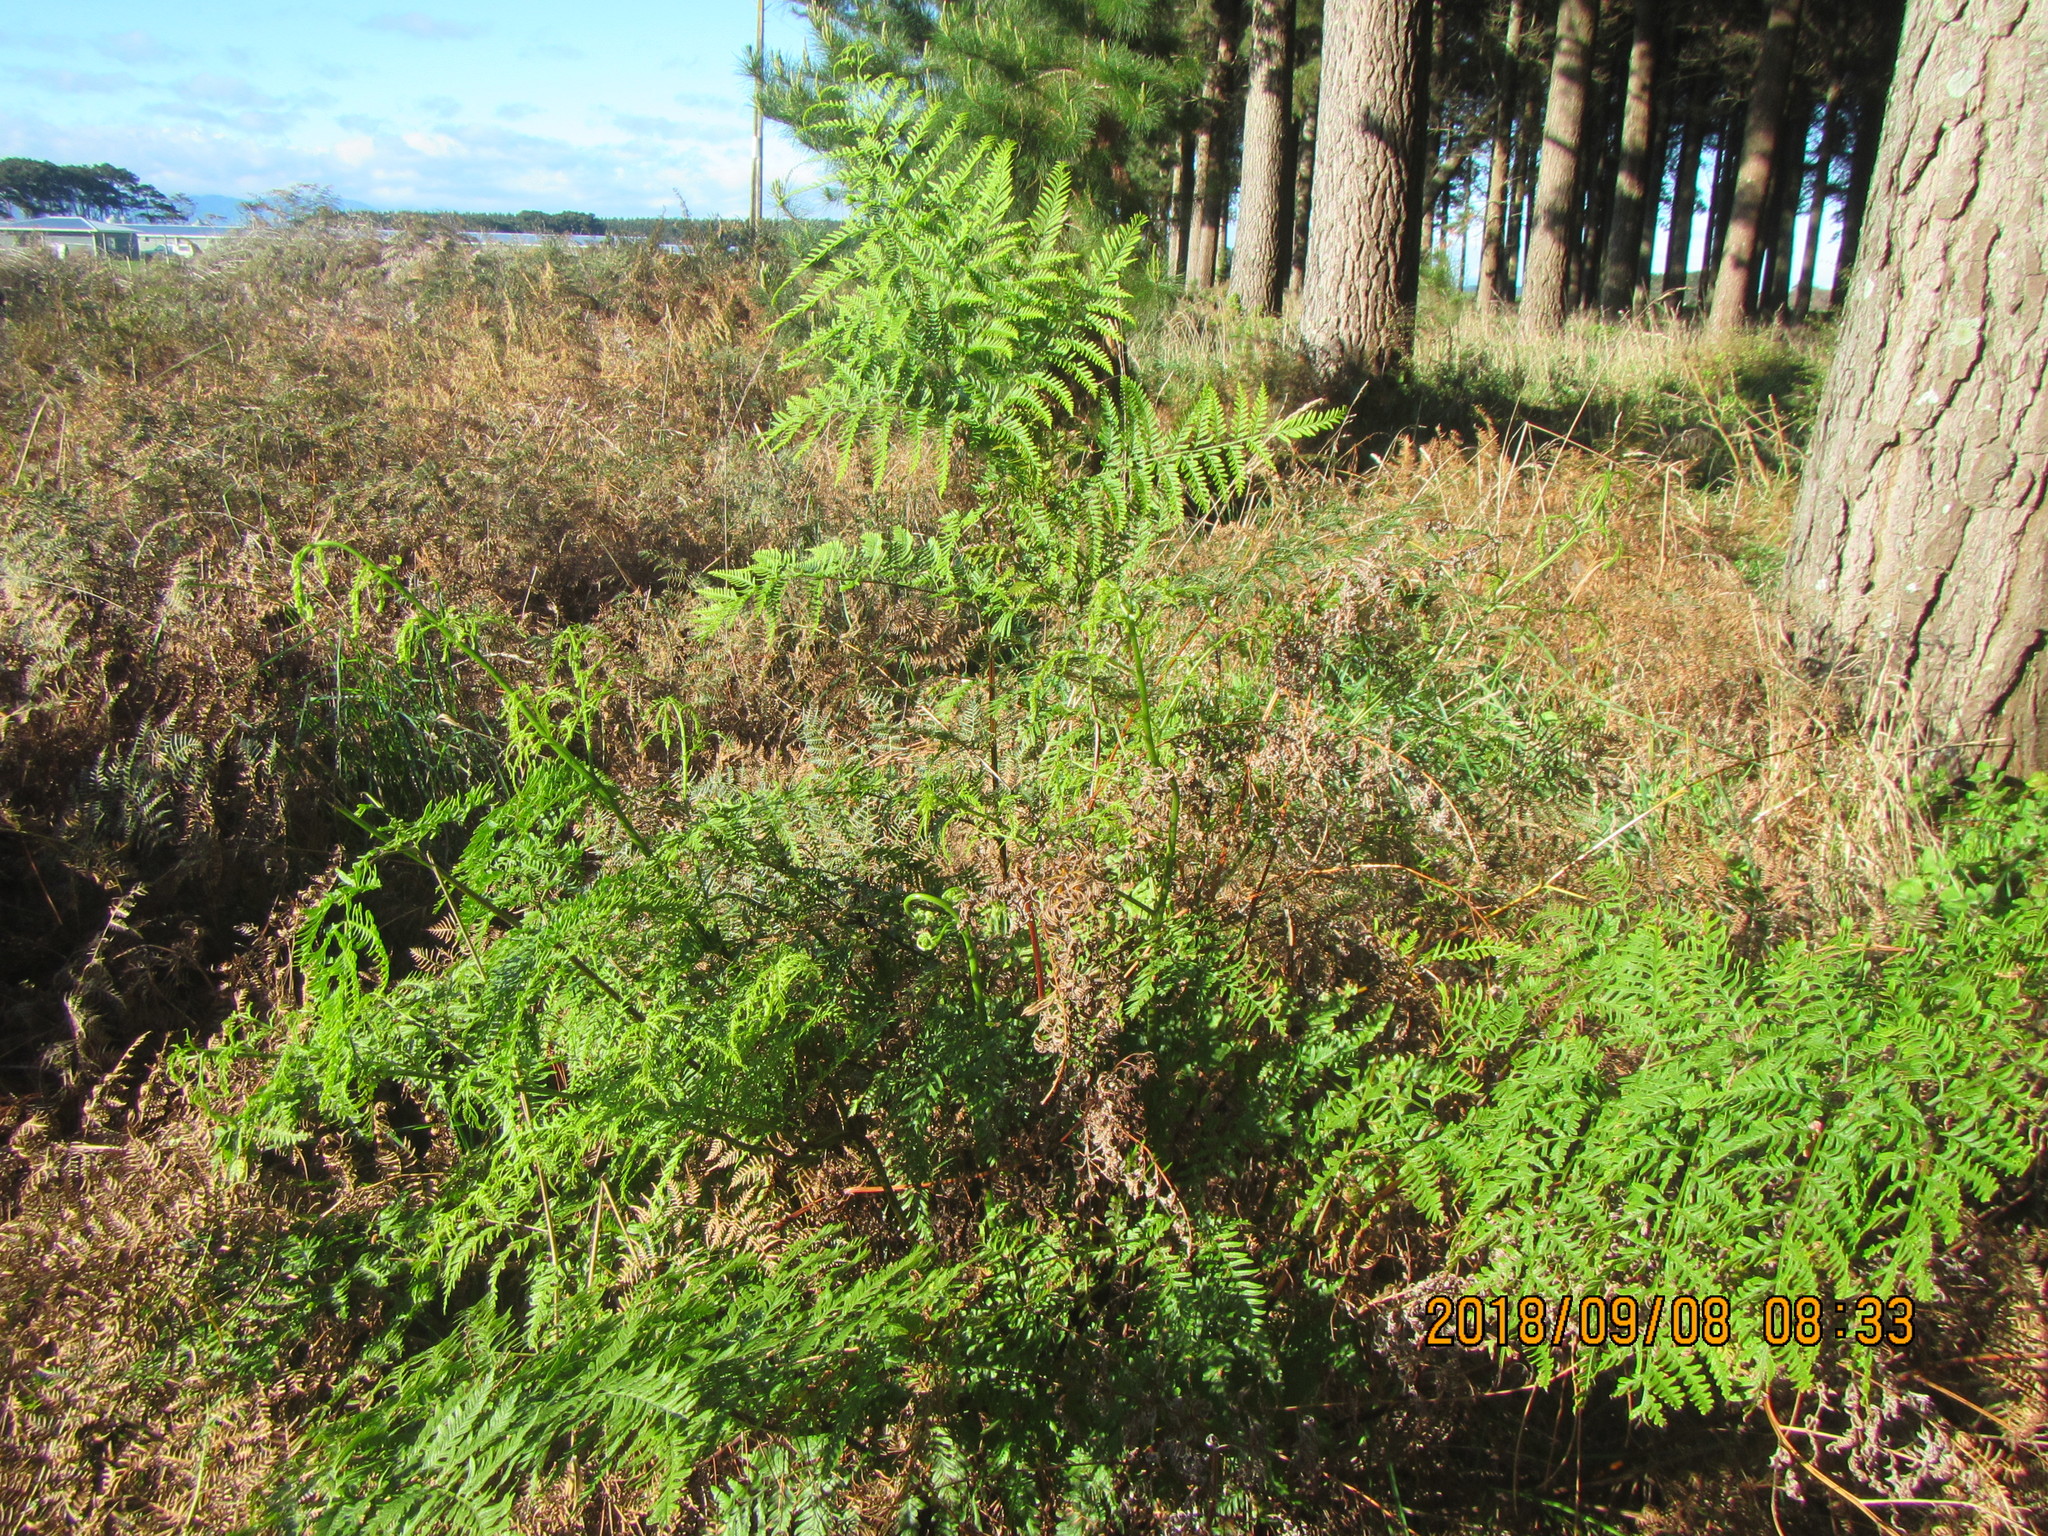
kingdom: Plantae
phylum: Tracheophyta
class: Polypodiopsida
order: Polypodiales
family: Dennstaedtiaceae
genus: Pteridium
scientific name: Pteridium esculentum
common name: Bracken fern
